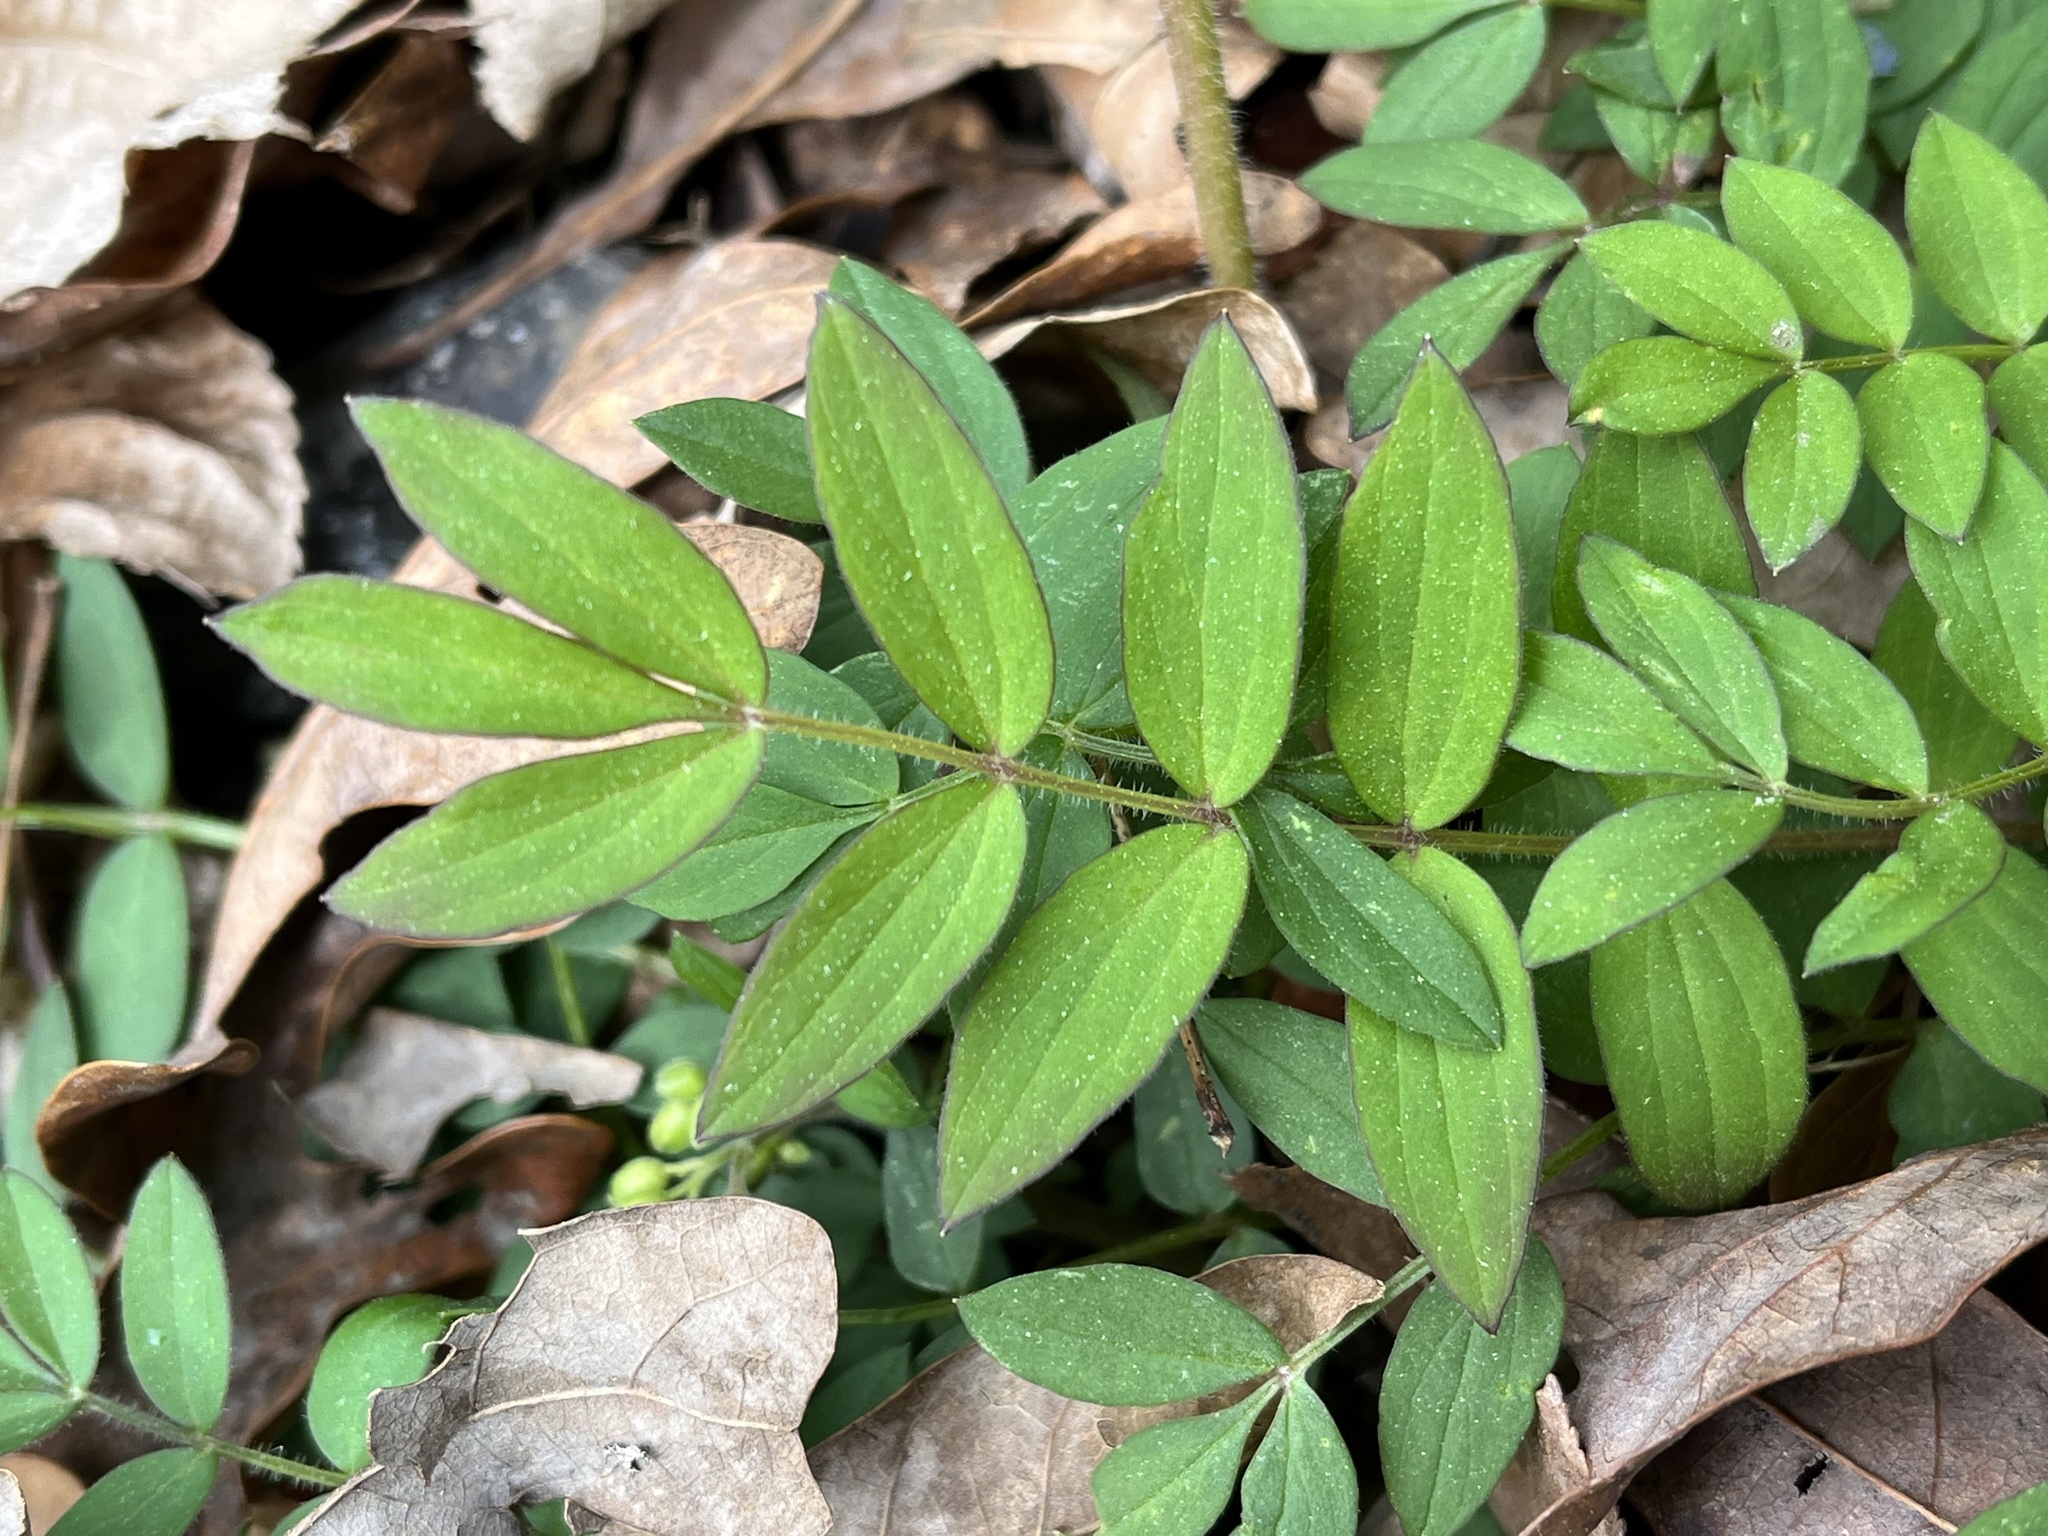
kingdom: Plantae
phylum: Tracheophyta
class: Magnoliopsida
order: Ericales
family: Polemoniaceae
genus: Polemonium
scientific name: Polemonium reptans
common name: Creeping jacob's-ladder
